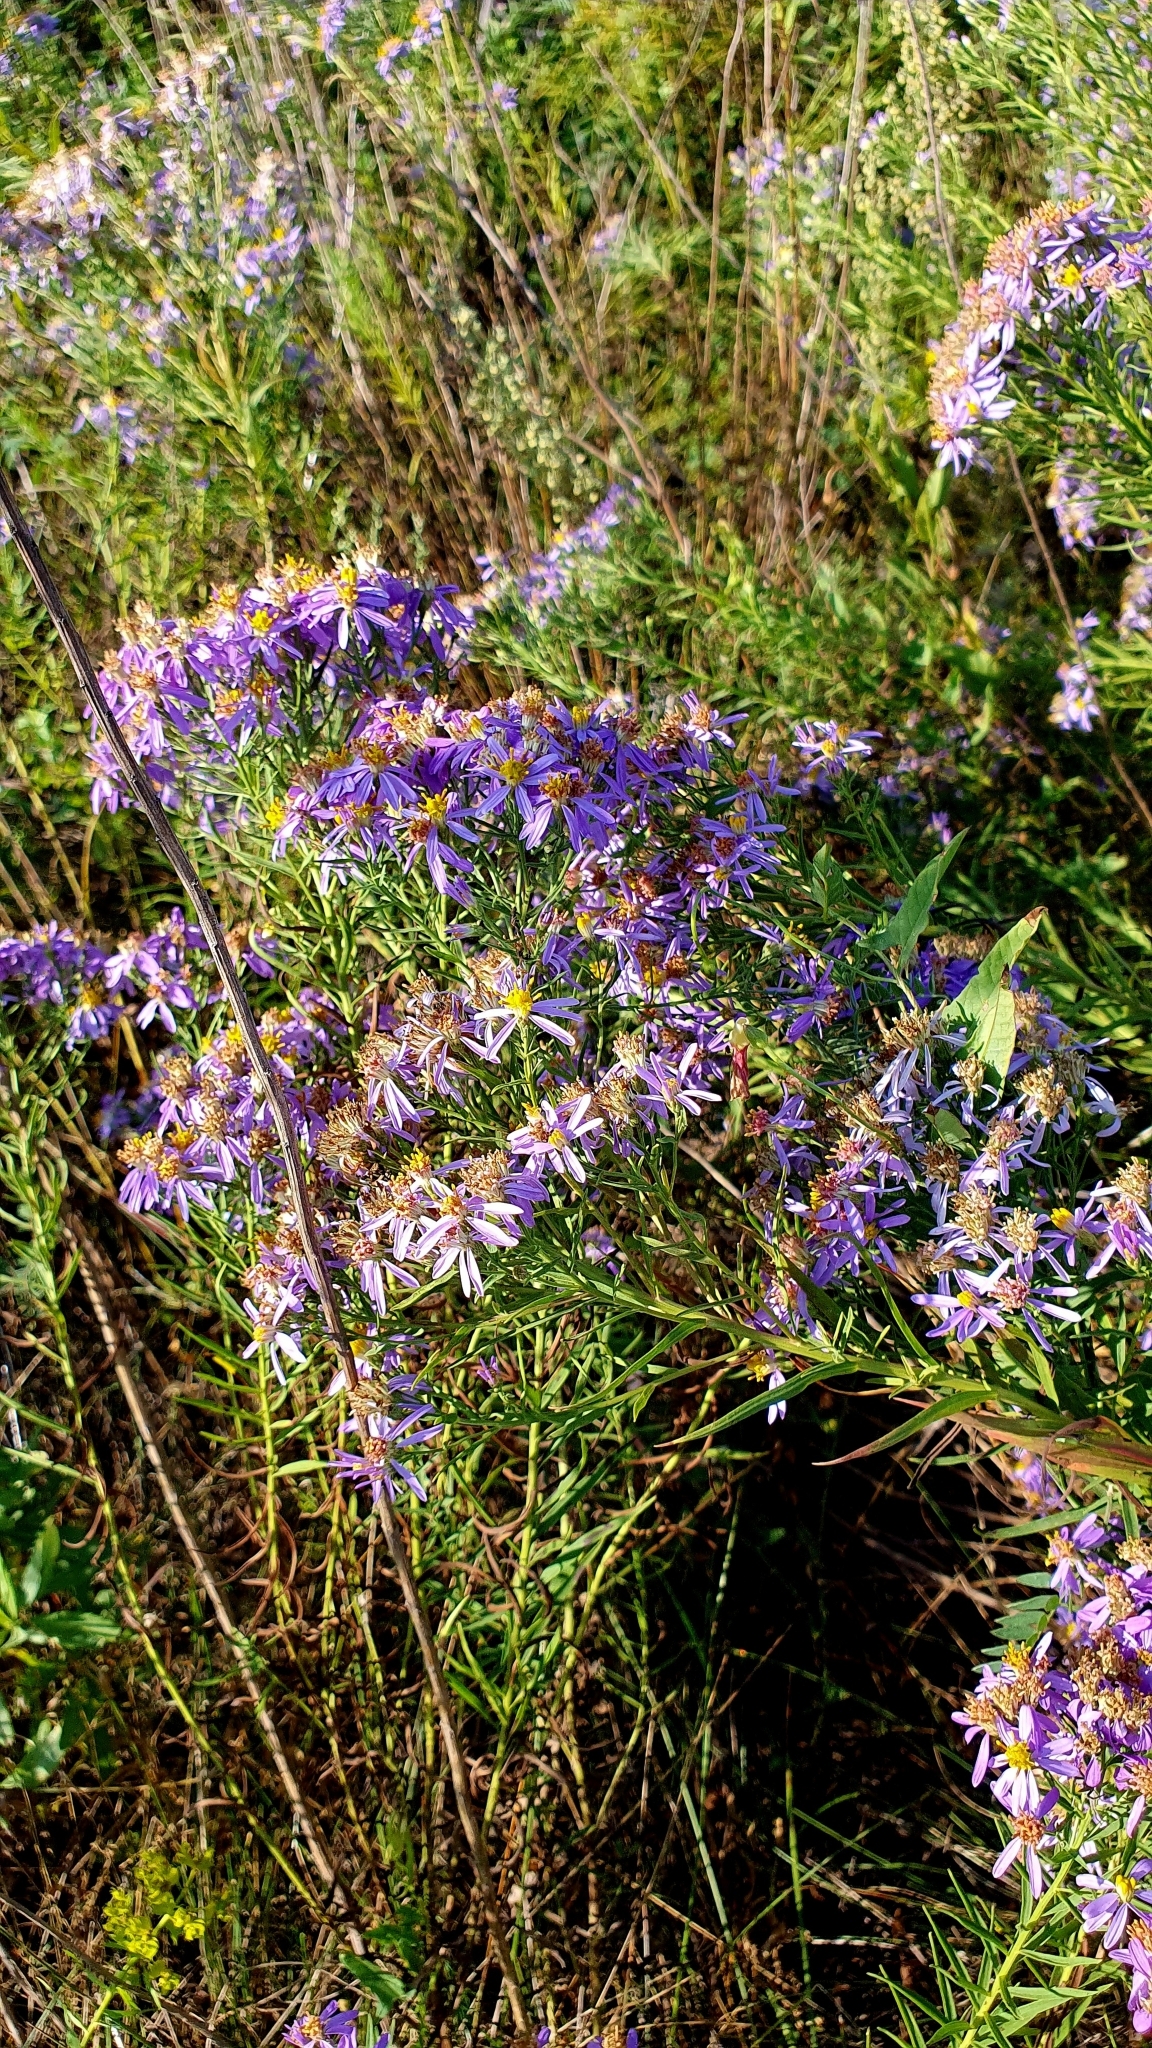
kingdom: Plantae
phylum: Tracheophyta
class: Magnoliopsida
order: Asterales
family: Asteraceae
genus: Galatella
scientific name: Galatella sedifolia
